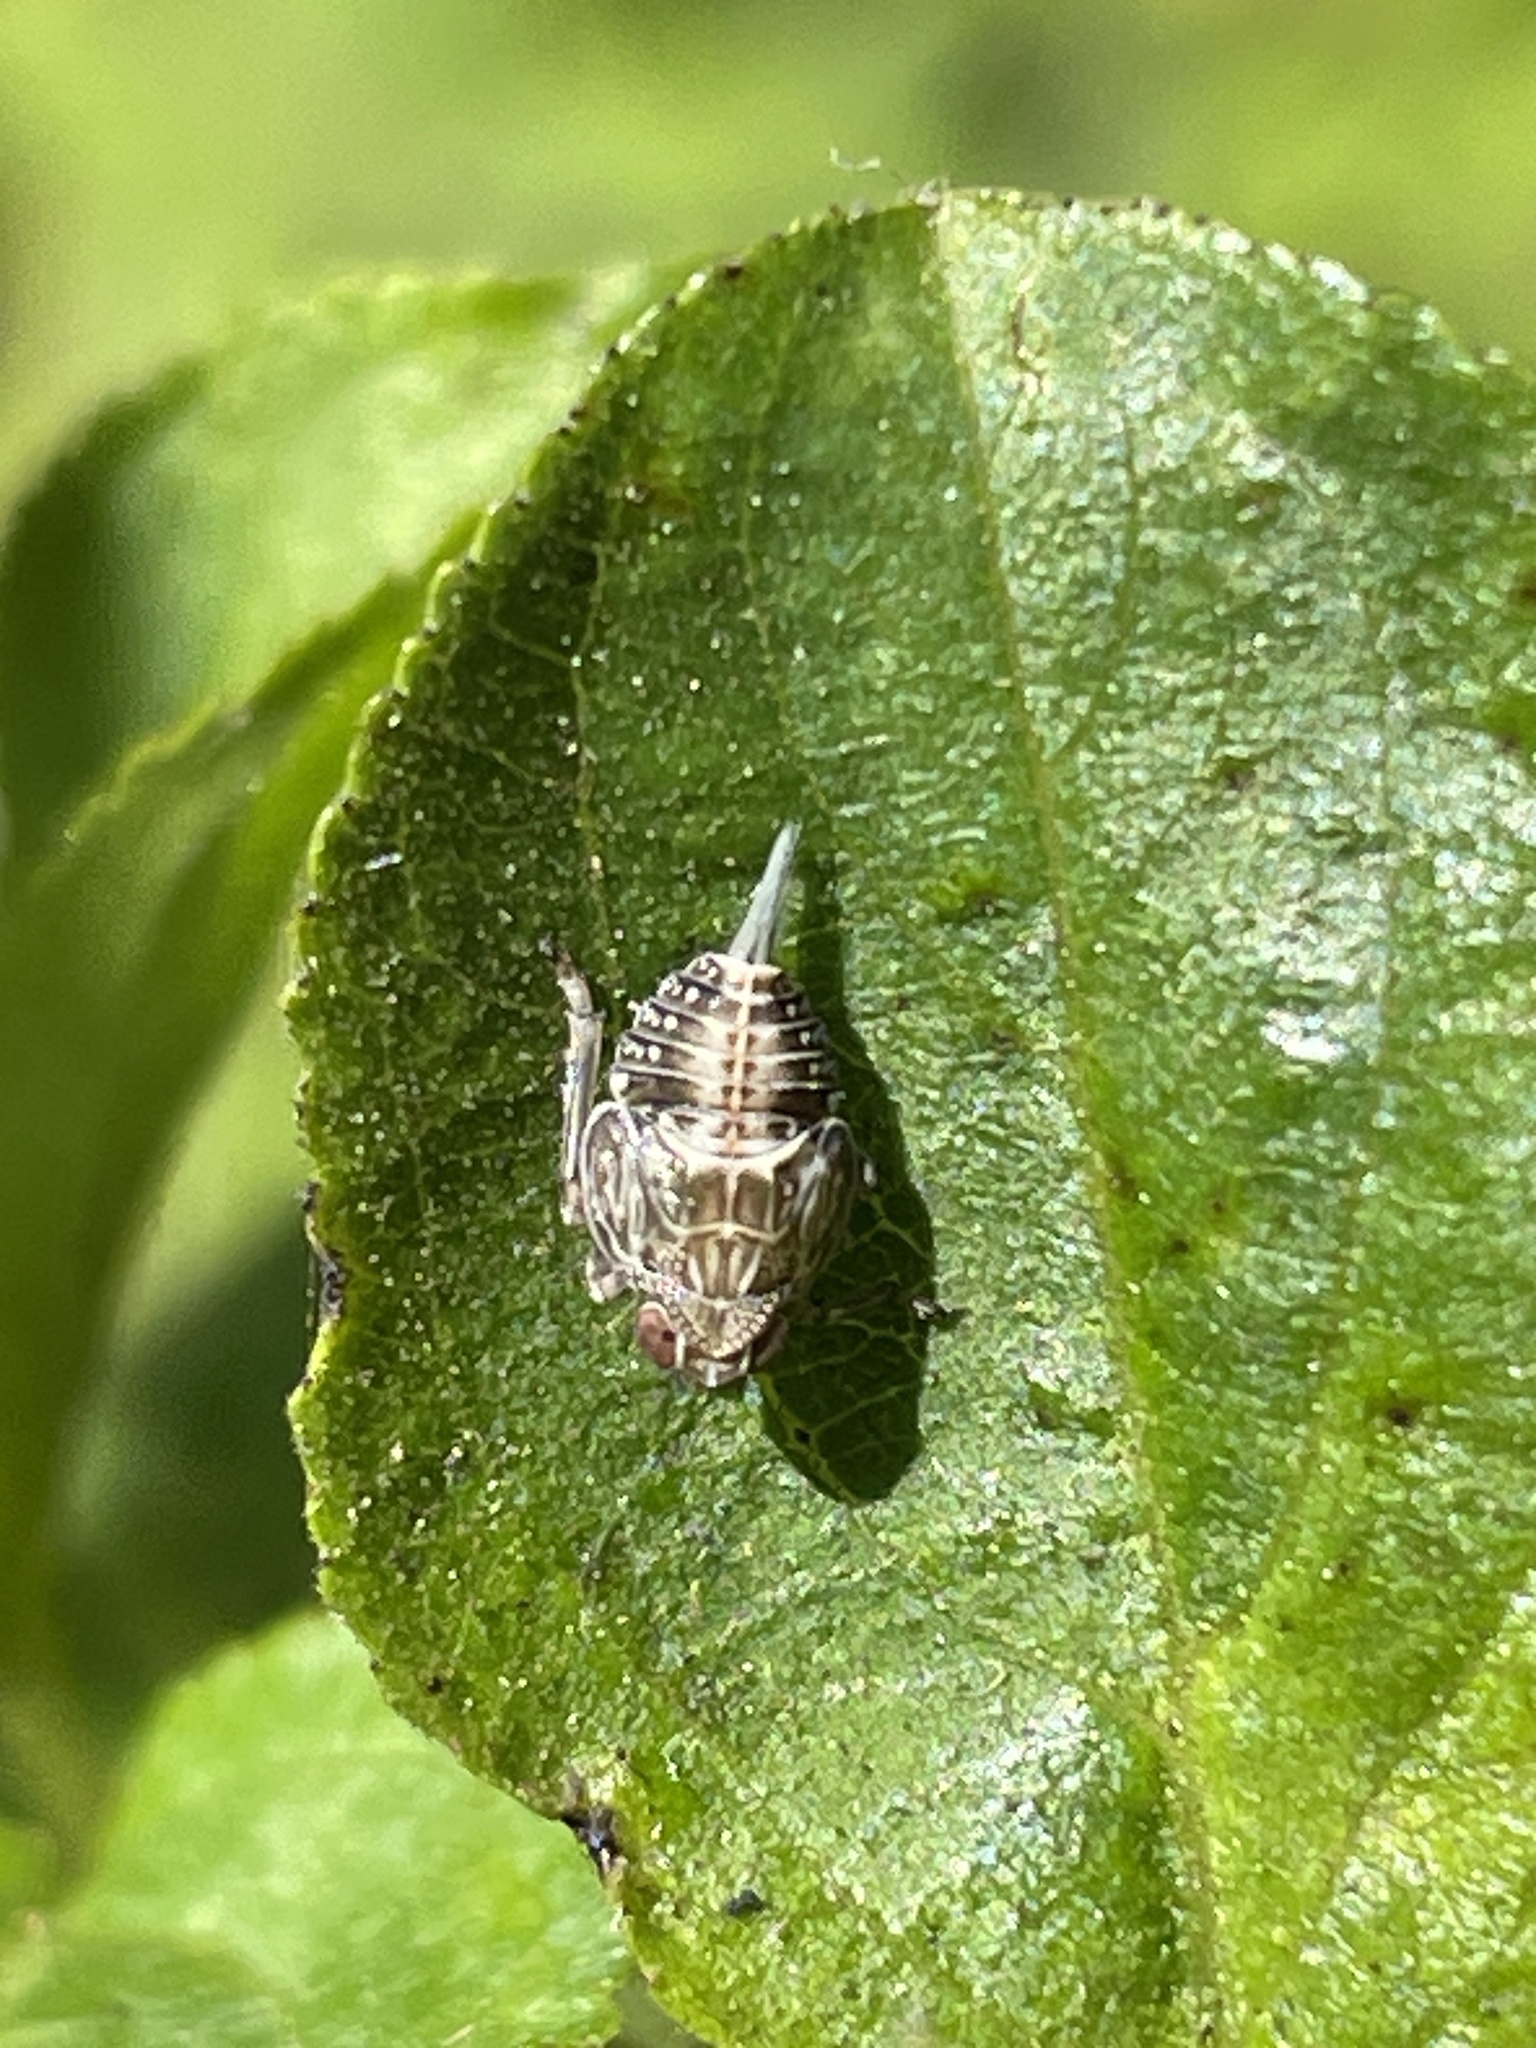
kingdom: Animalia
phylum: Arthropoda
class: Insecta
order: Hemiptera
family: Issidae
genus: Issus
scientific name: Issus coleoptratus
